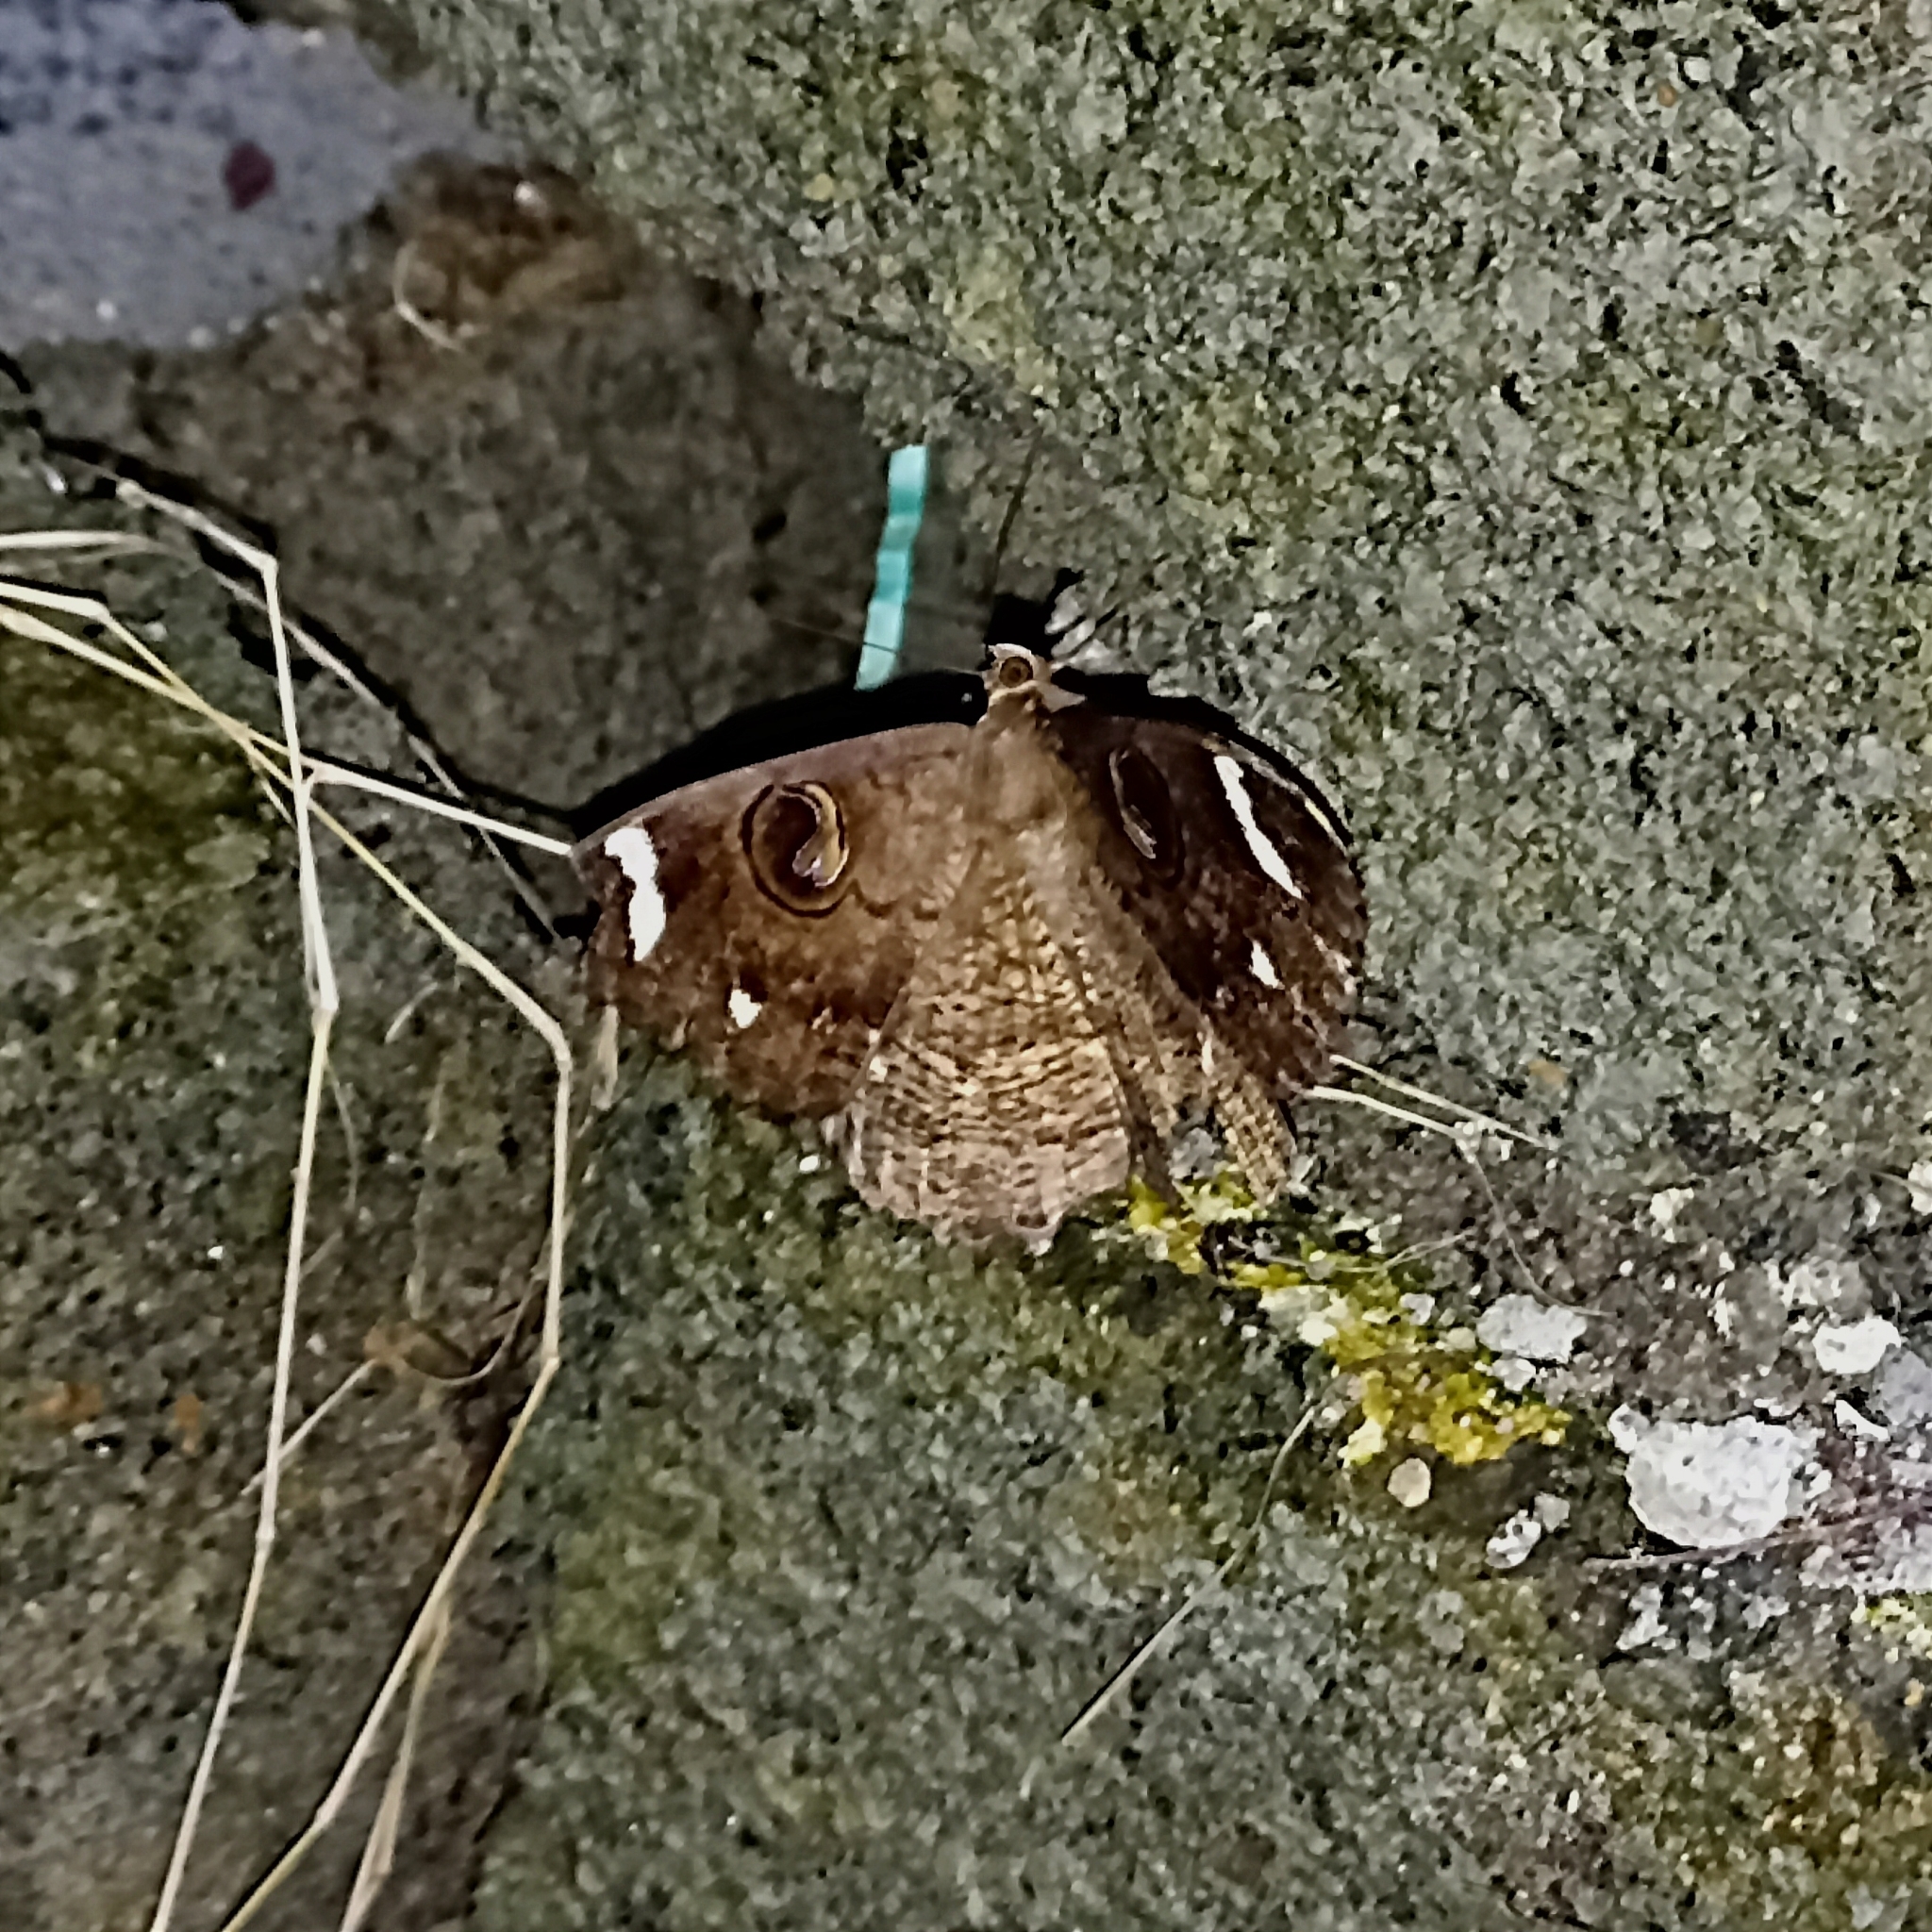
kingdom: Animalia
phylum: Arthropoda
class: Insecta
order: Lepidoptera
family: Erebidae
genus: Erebus
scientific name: Erebus hieroglyphica
